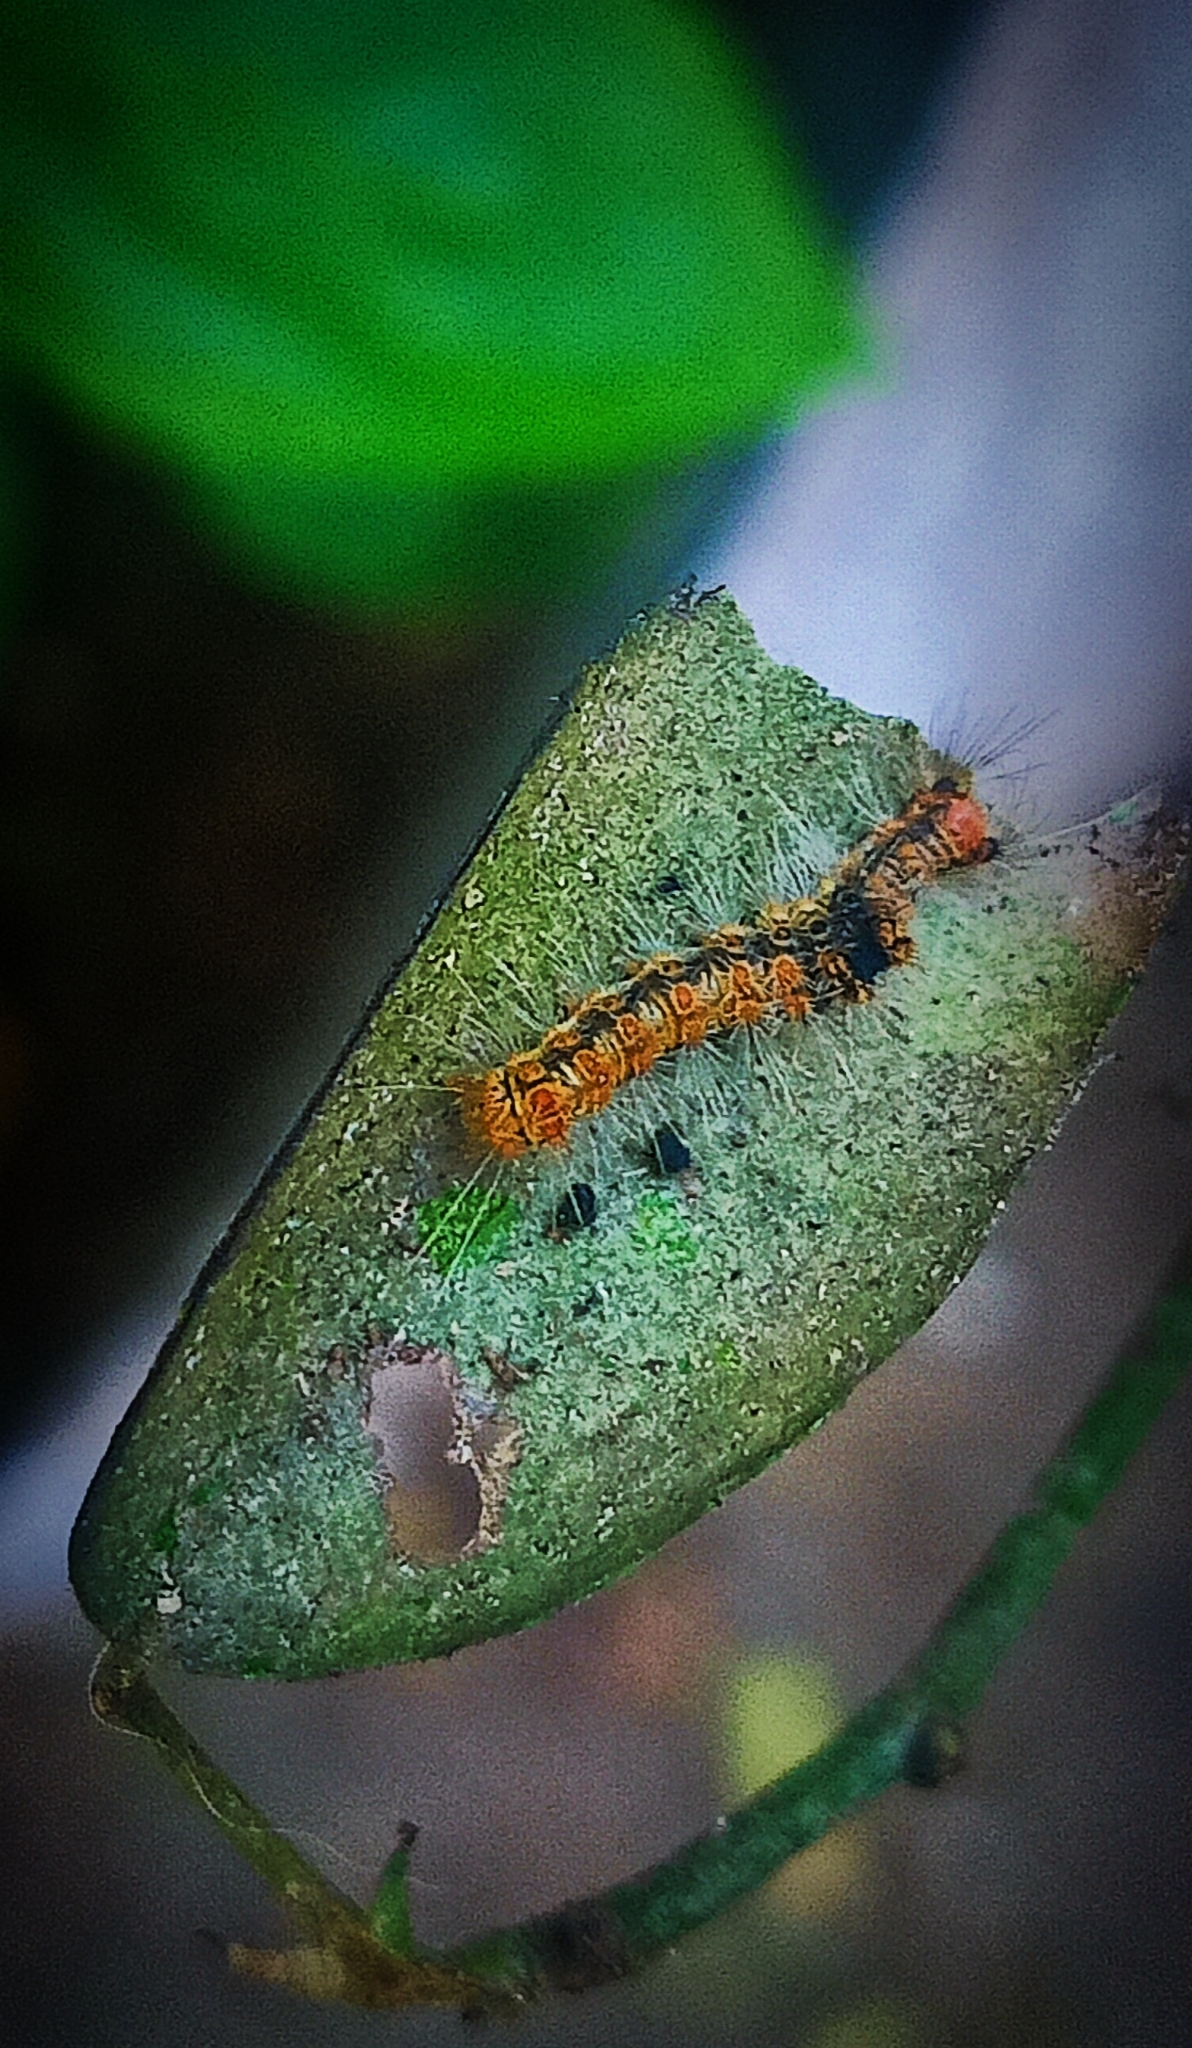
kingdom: Animalia
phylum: Arthropoda
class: Insecta
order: Lepidoptera
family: Erebidae
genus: Nygmia
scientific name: Nygmia plana
